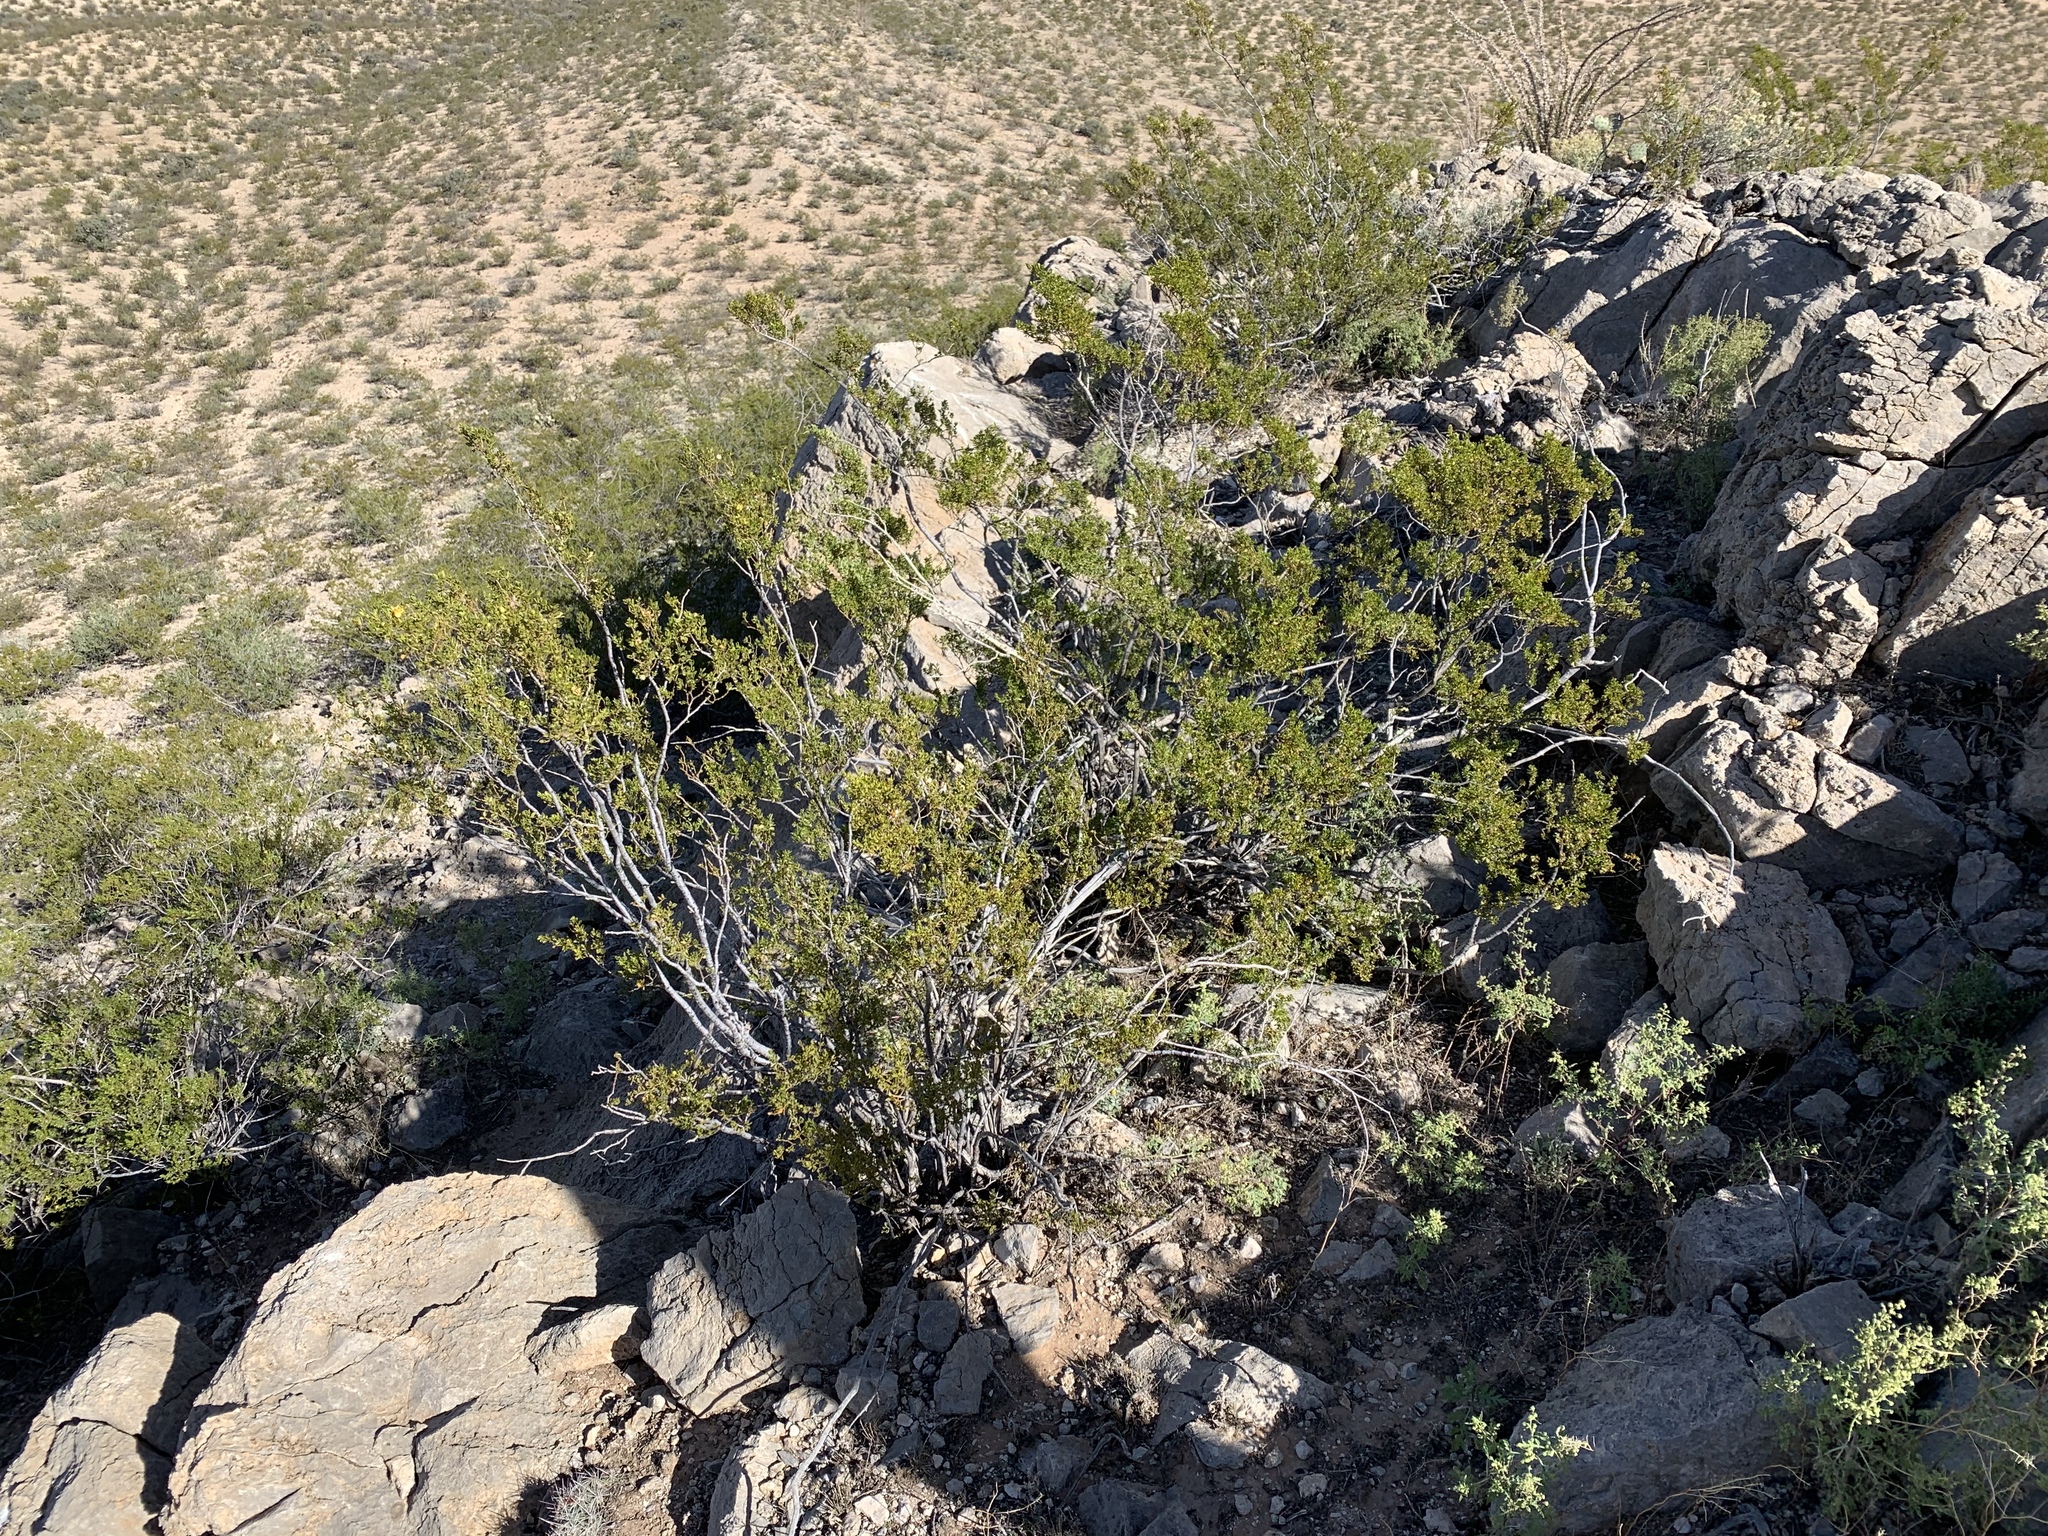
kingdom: Plantae
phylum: Tracheophyta
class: Magnoliopsida
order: Zygophyllales
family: Zygophyllaceae
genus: Larrea
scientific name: Larrea tridentata
